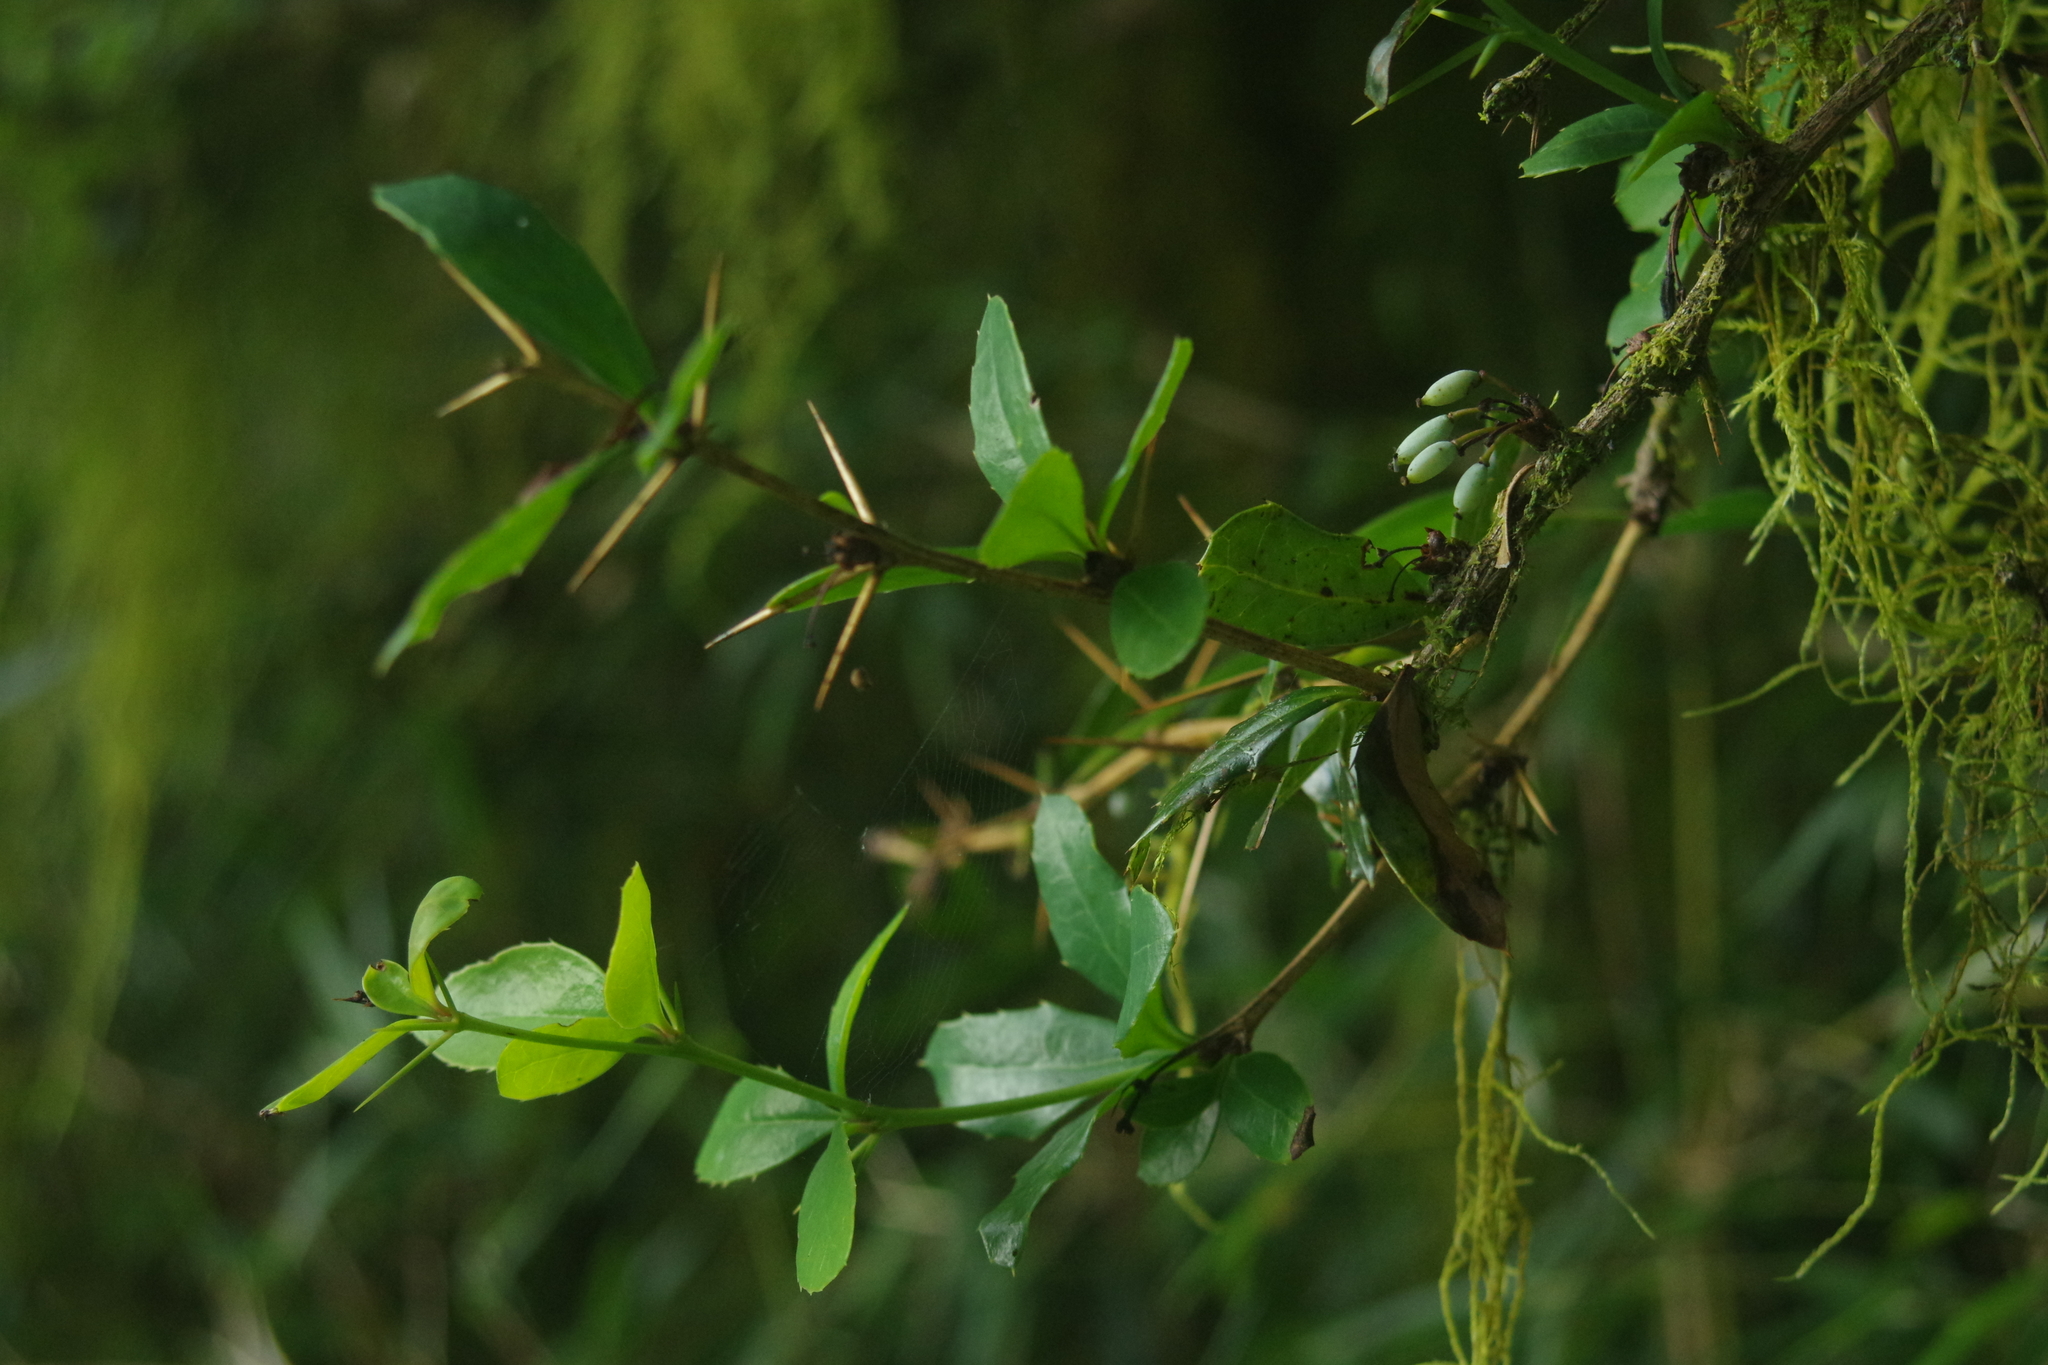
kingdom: Plantae
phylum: Tracheophyta
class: Magnoliopsida
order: Ranunculales
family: Berberidaceae
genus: Berberis
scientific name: Berberis kawakamii
